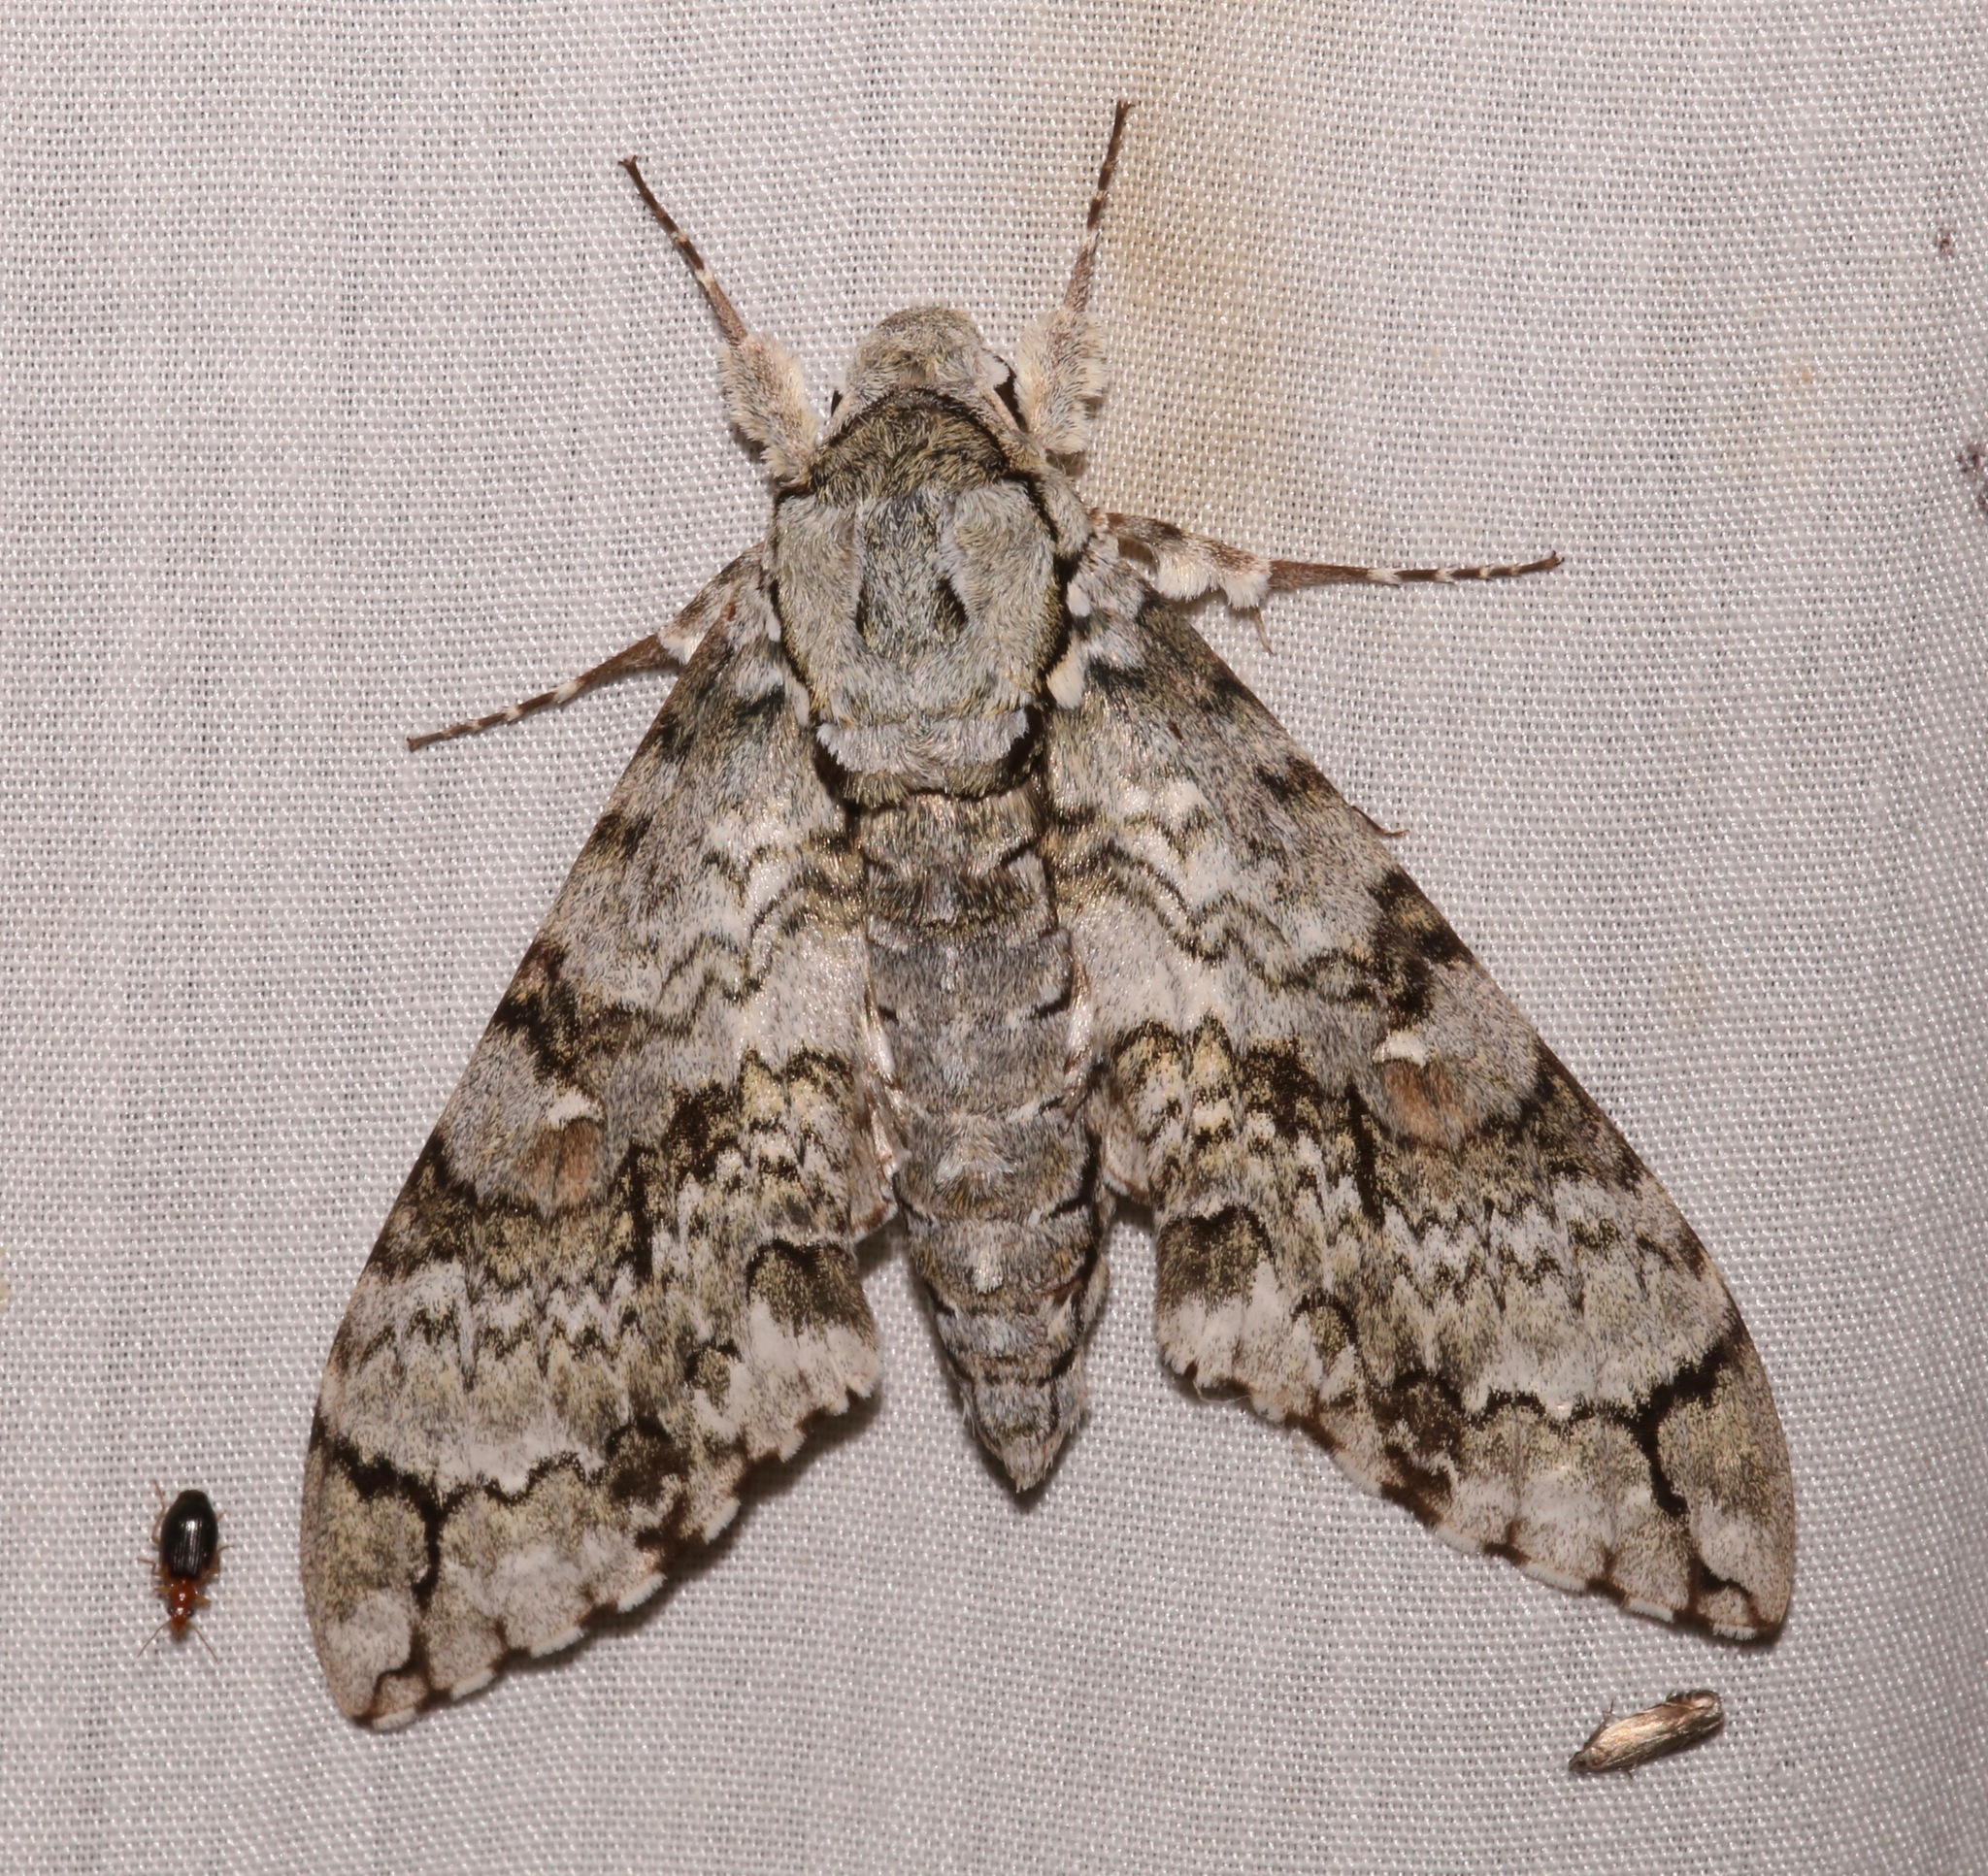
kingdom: Animalia
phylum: Arthropoda
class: Insecta
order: Lepidoptera
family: Sphingidae
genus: Manduca
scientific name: Manduca florestan
